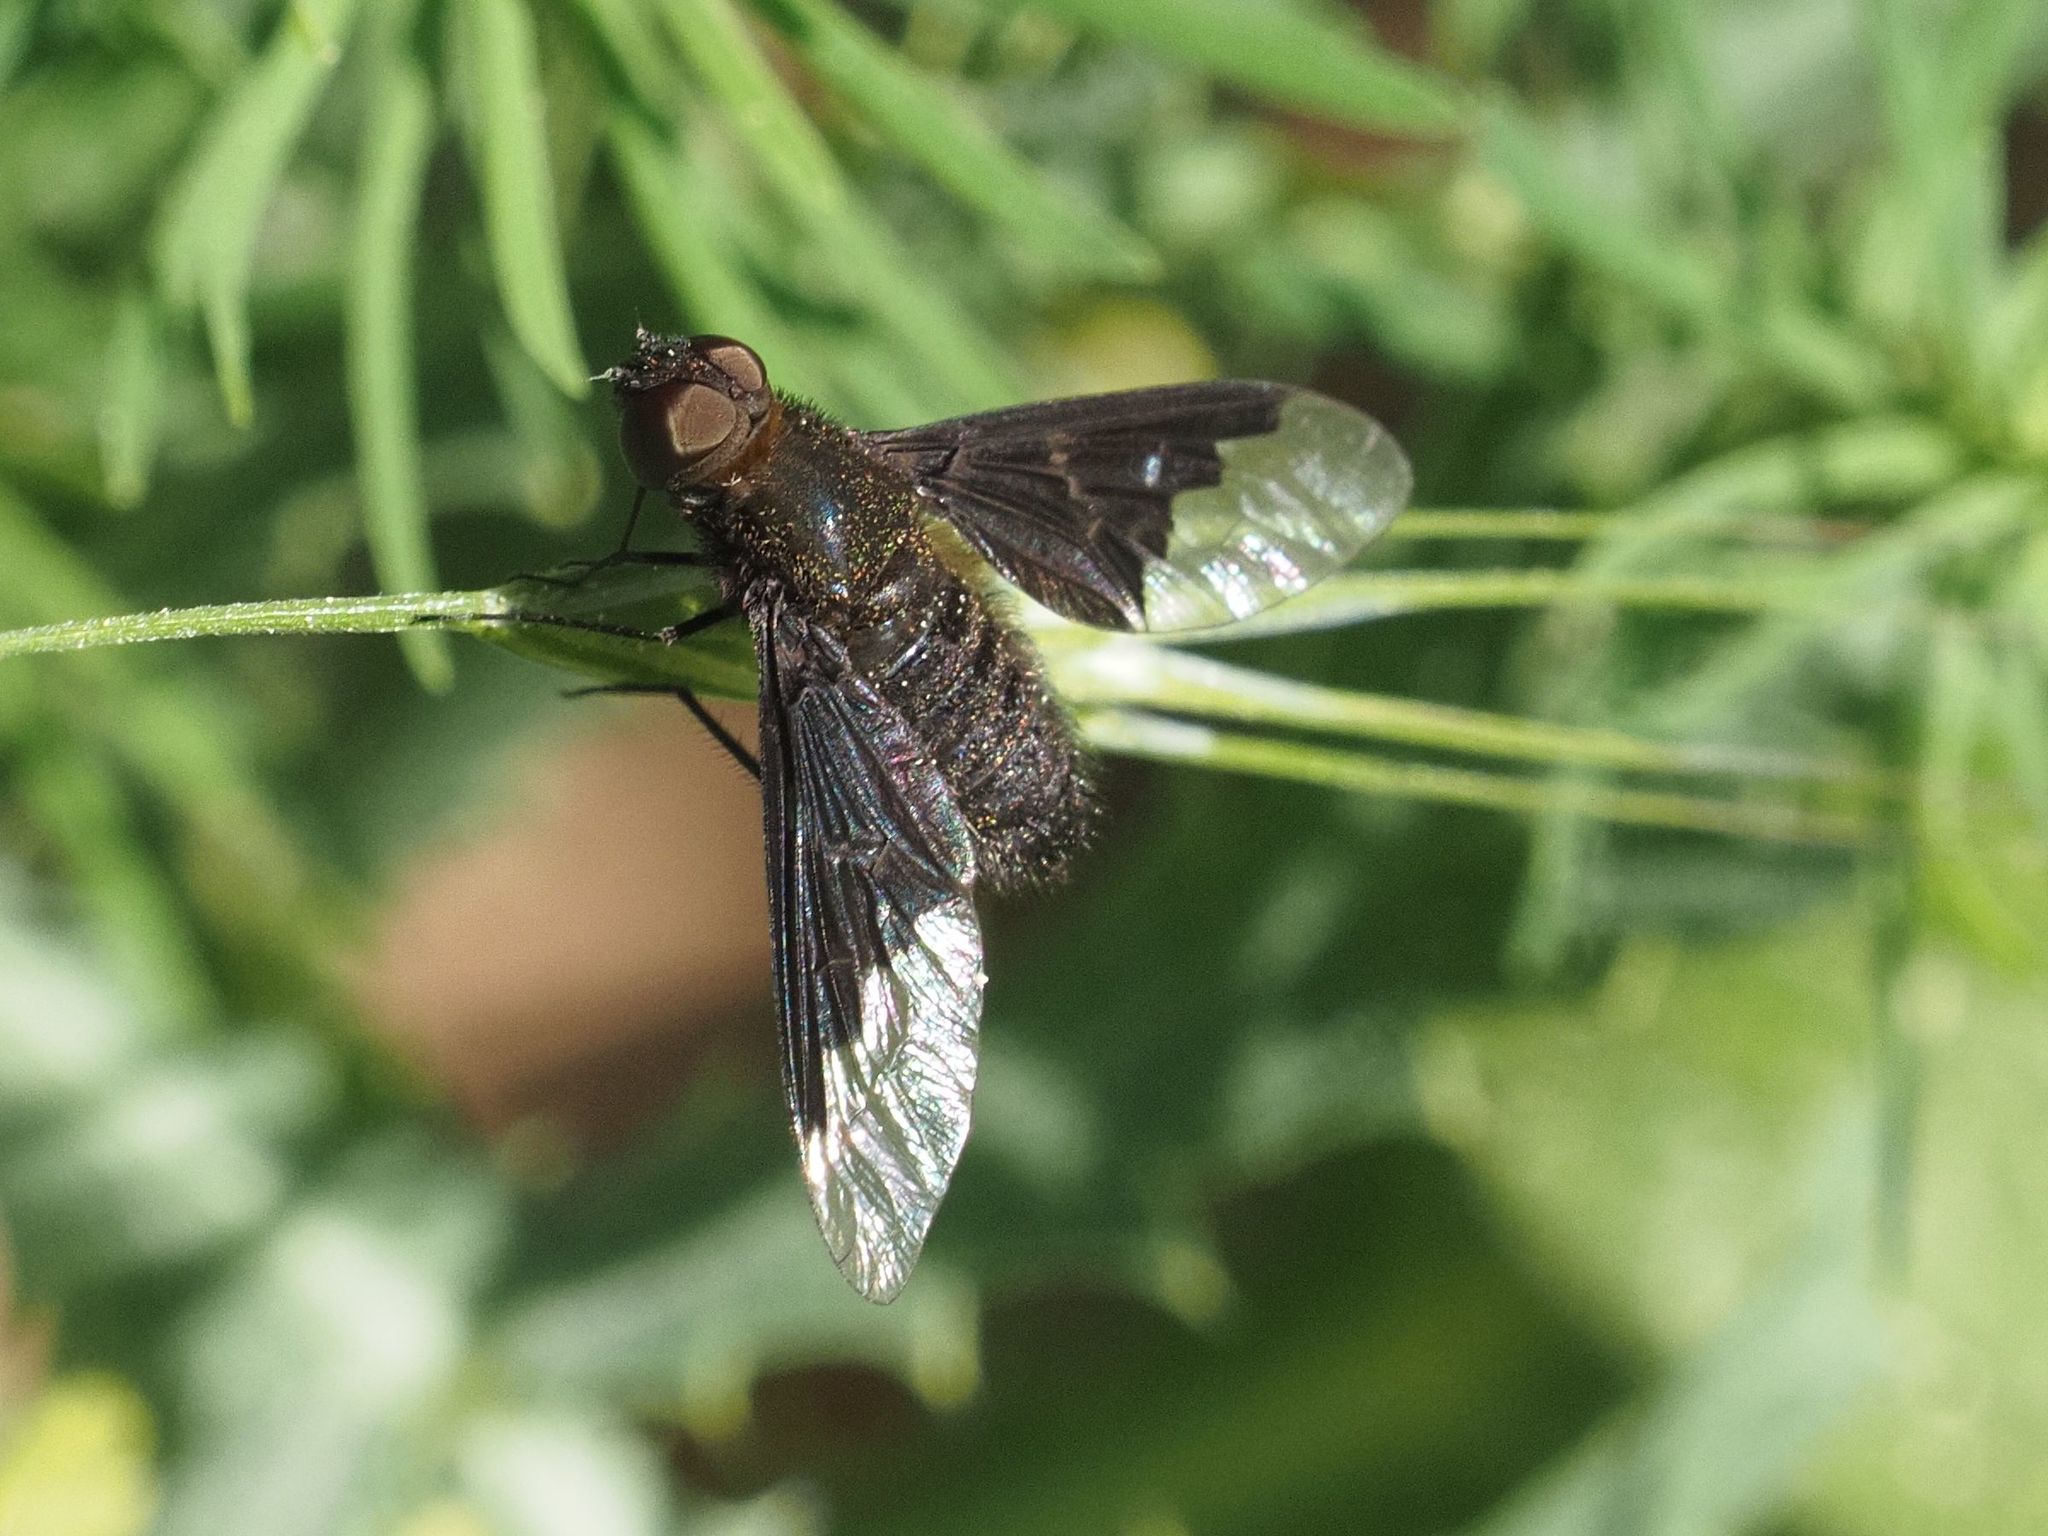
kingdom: Animalia
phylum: Arthropoda
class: Insecta
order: Diptera
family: Bombyliidae
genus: Hemipenthes
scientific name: Hemipenthes morio
